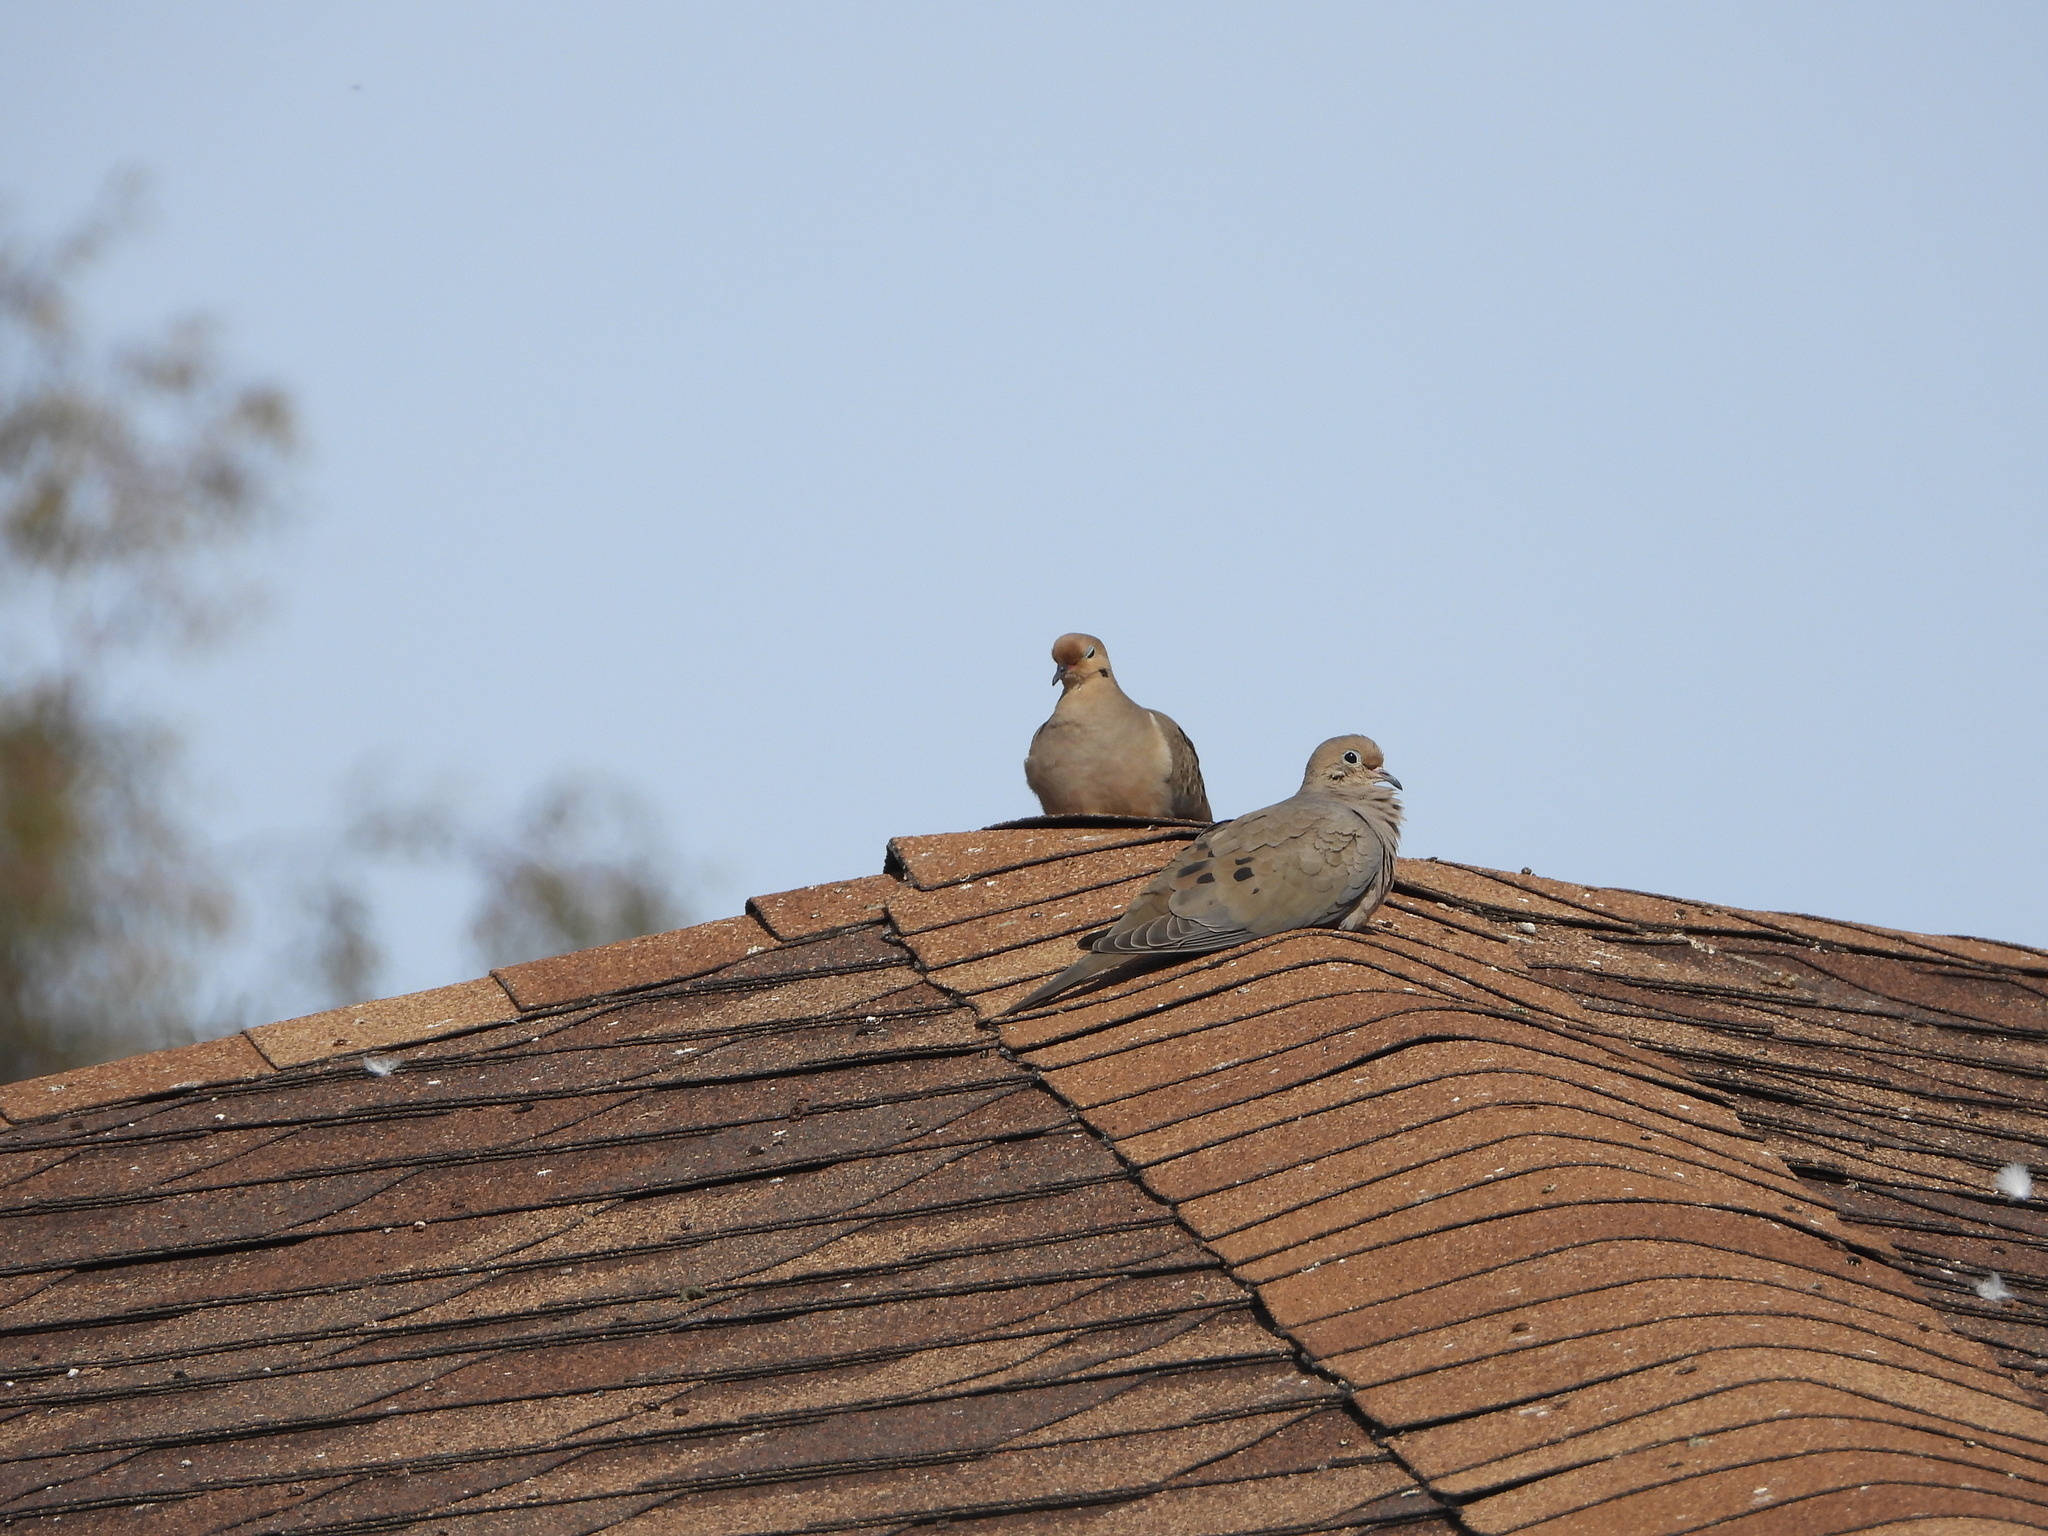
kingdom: Animalia
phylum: Chordata
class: Aves
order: Columbiformes
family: Columbidae
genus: Zenaida
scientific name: Zenaida macroura
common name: Mourning dove
